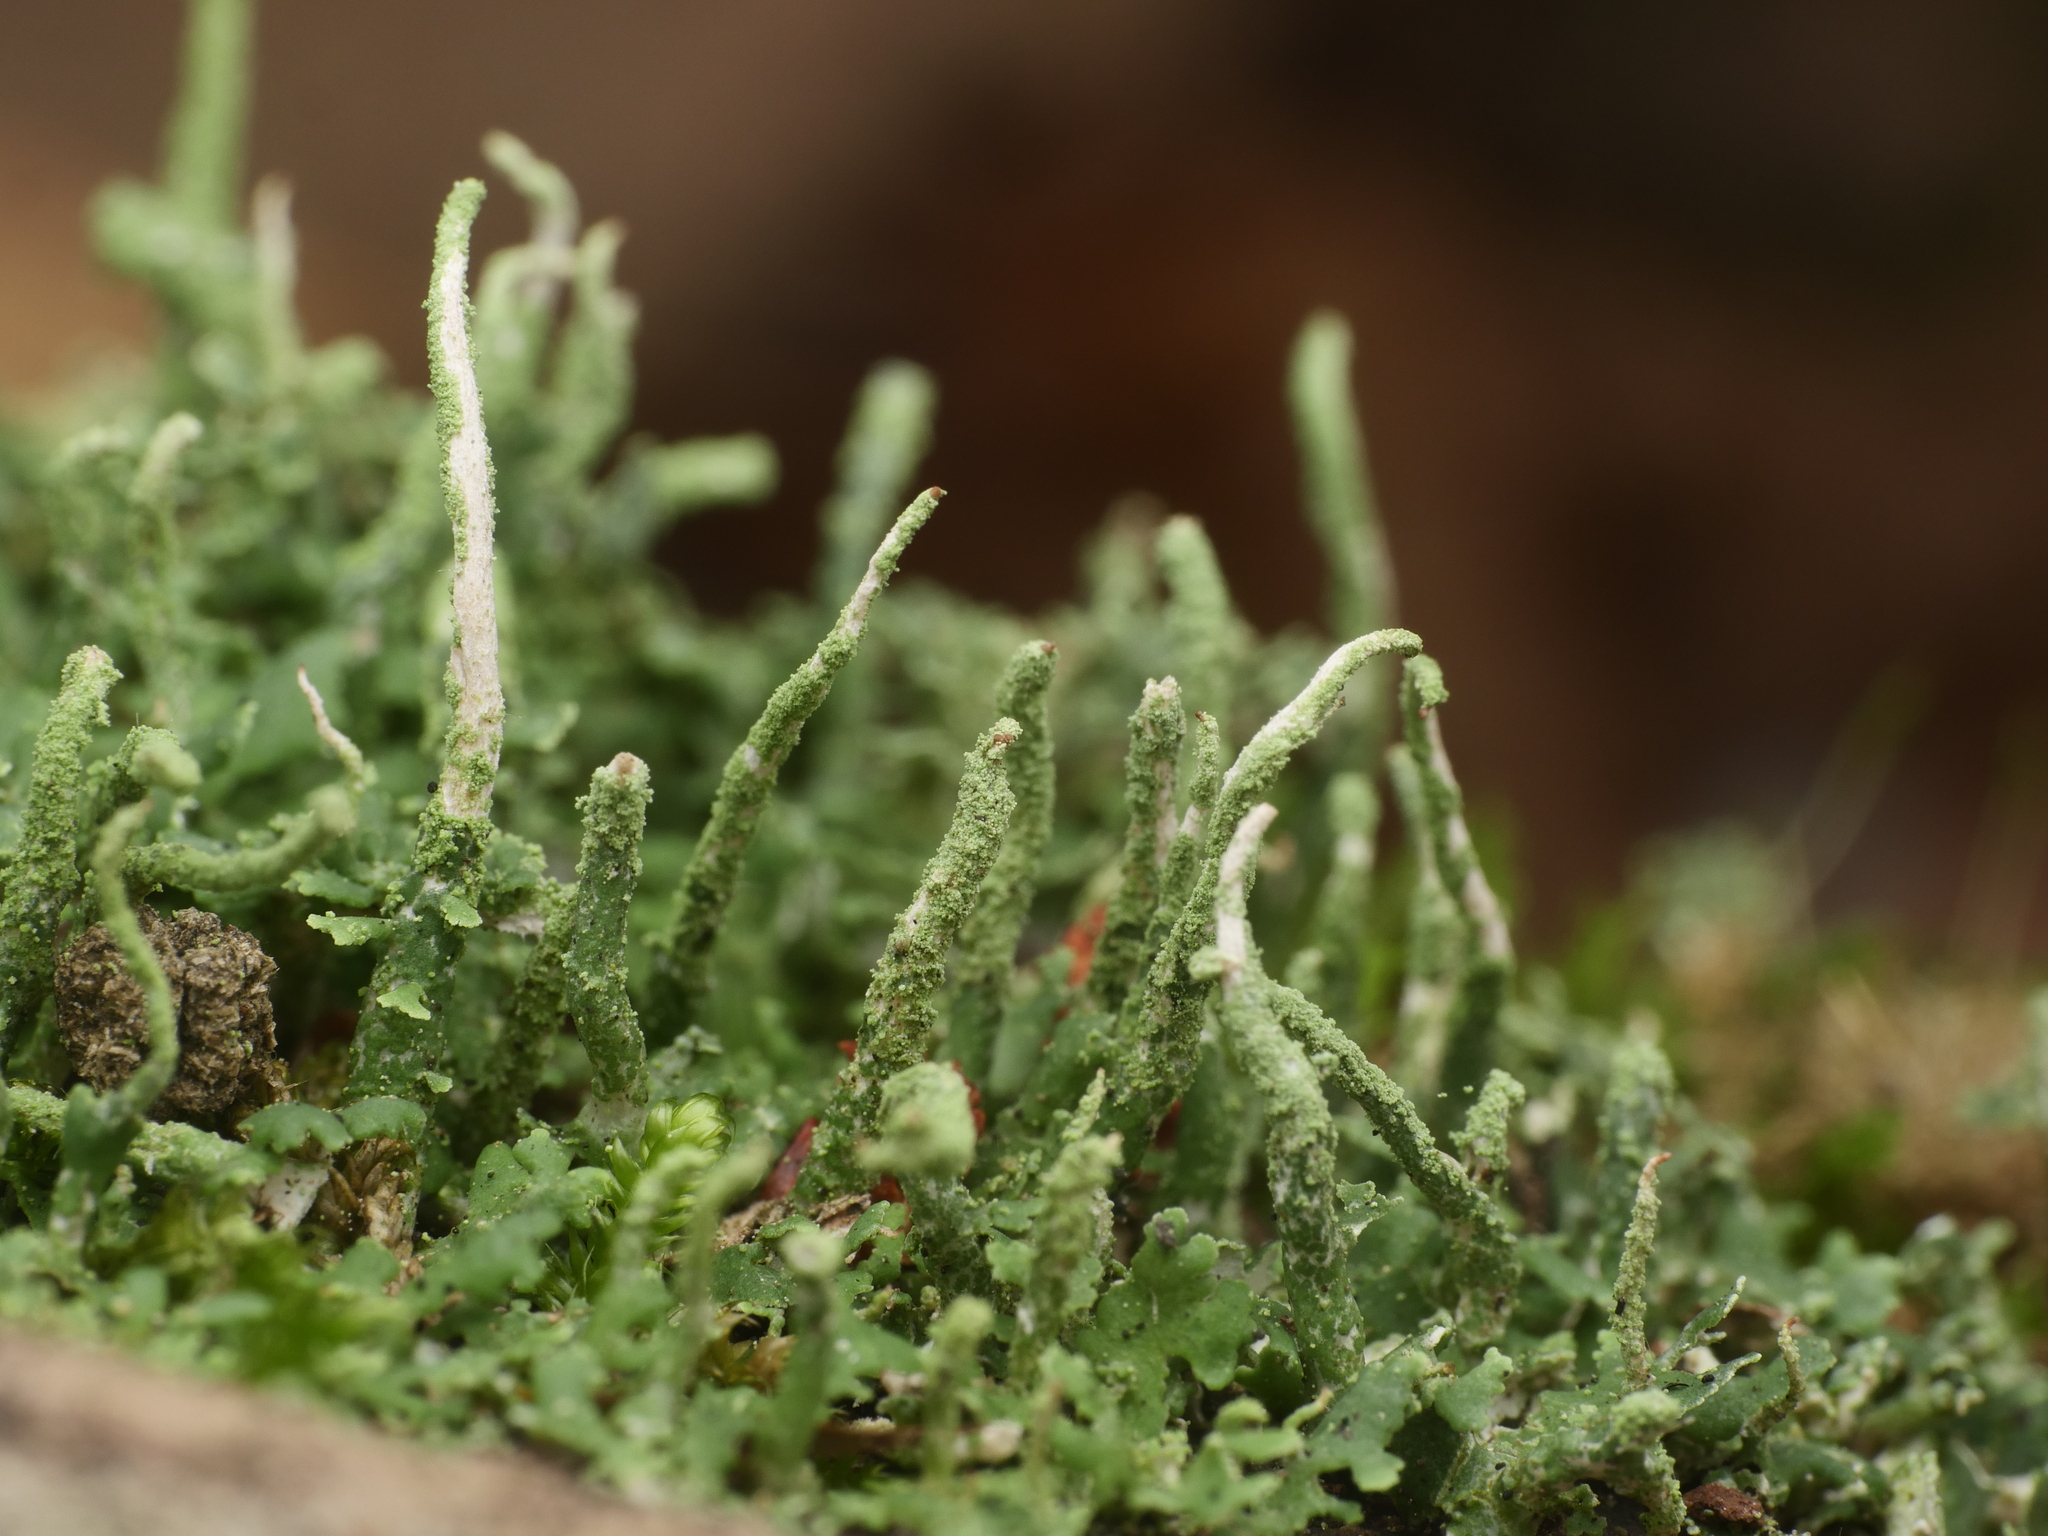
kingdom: Fungi
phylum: Ascomycota
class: Lecanoromycetes
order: Lecanorales
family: Cladoniaceae
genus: Cladonia
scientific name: Cladonia coniocraea
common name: Common powderhorn
